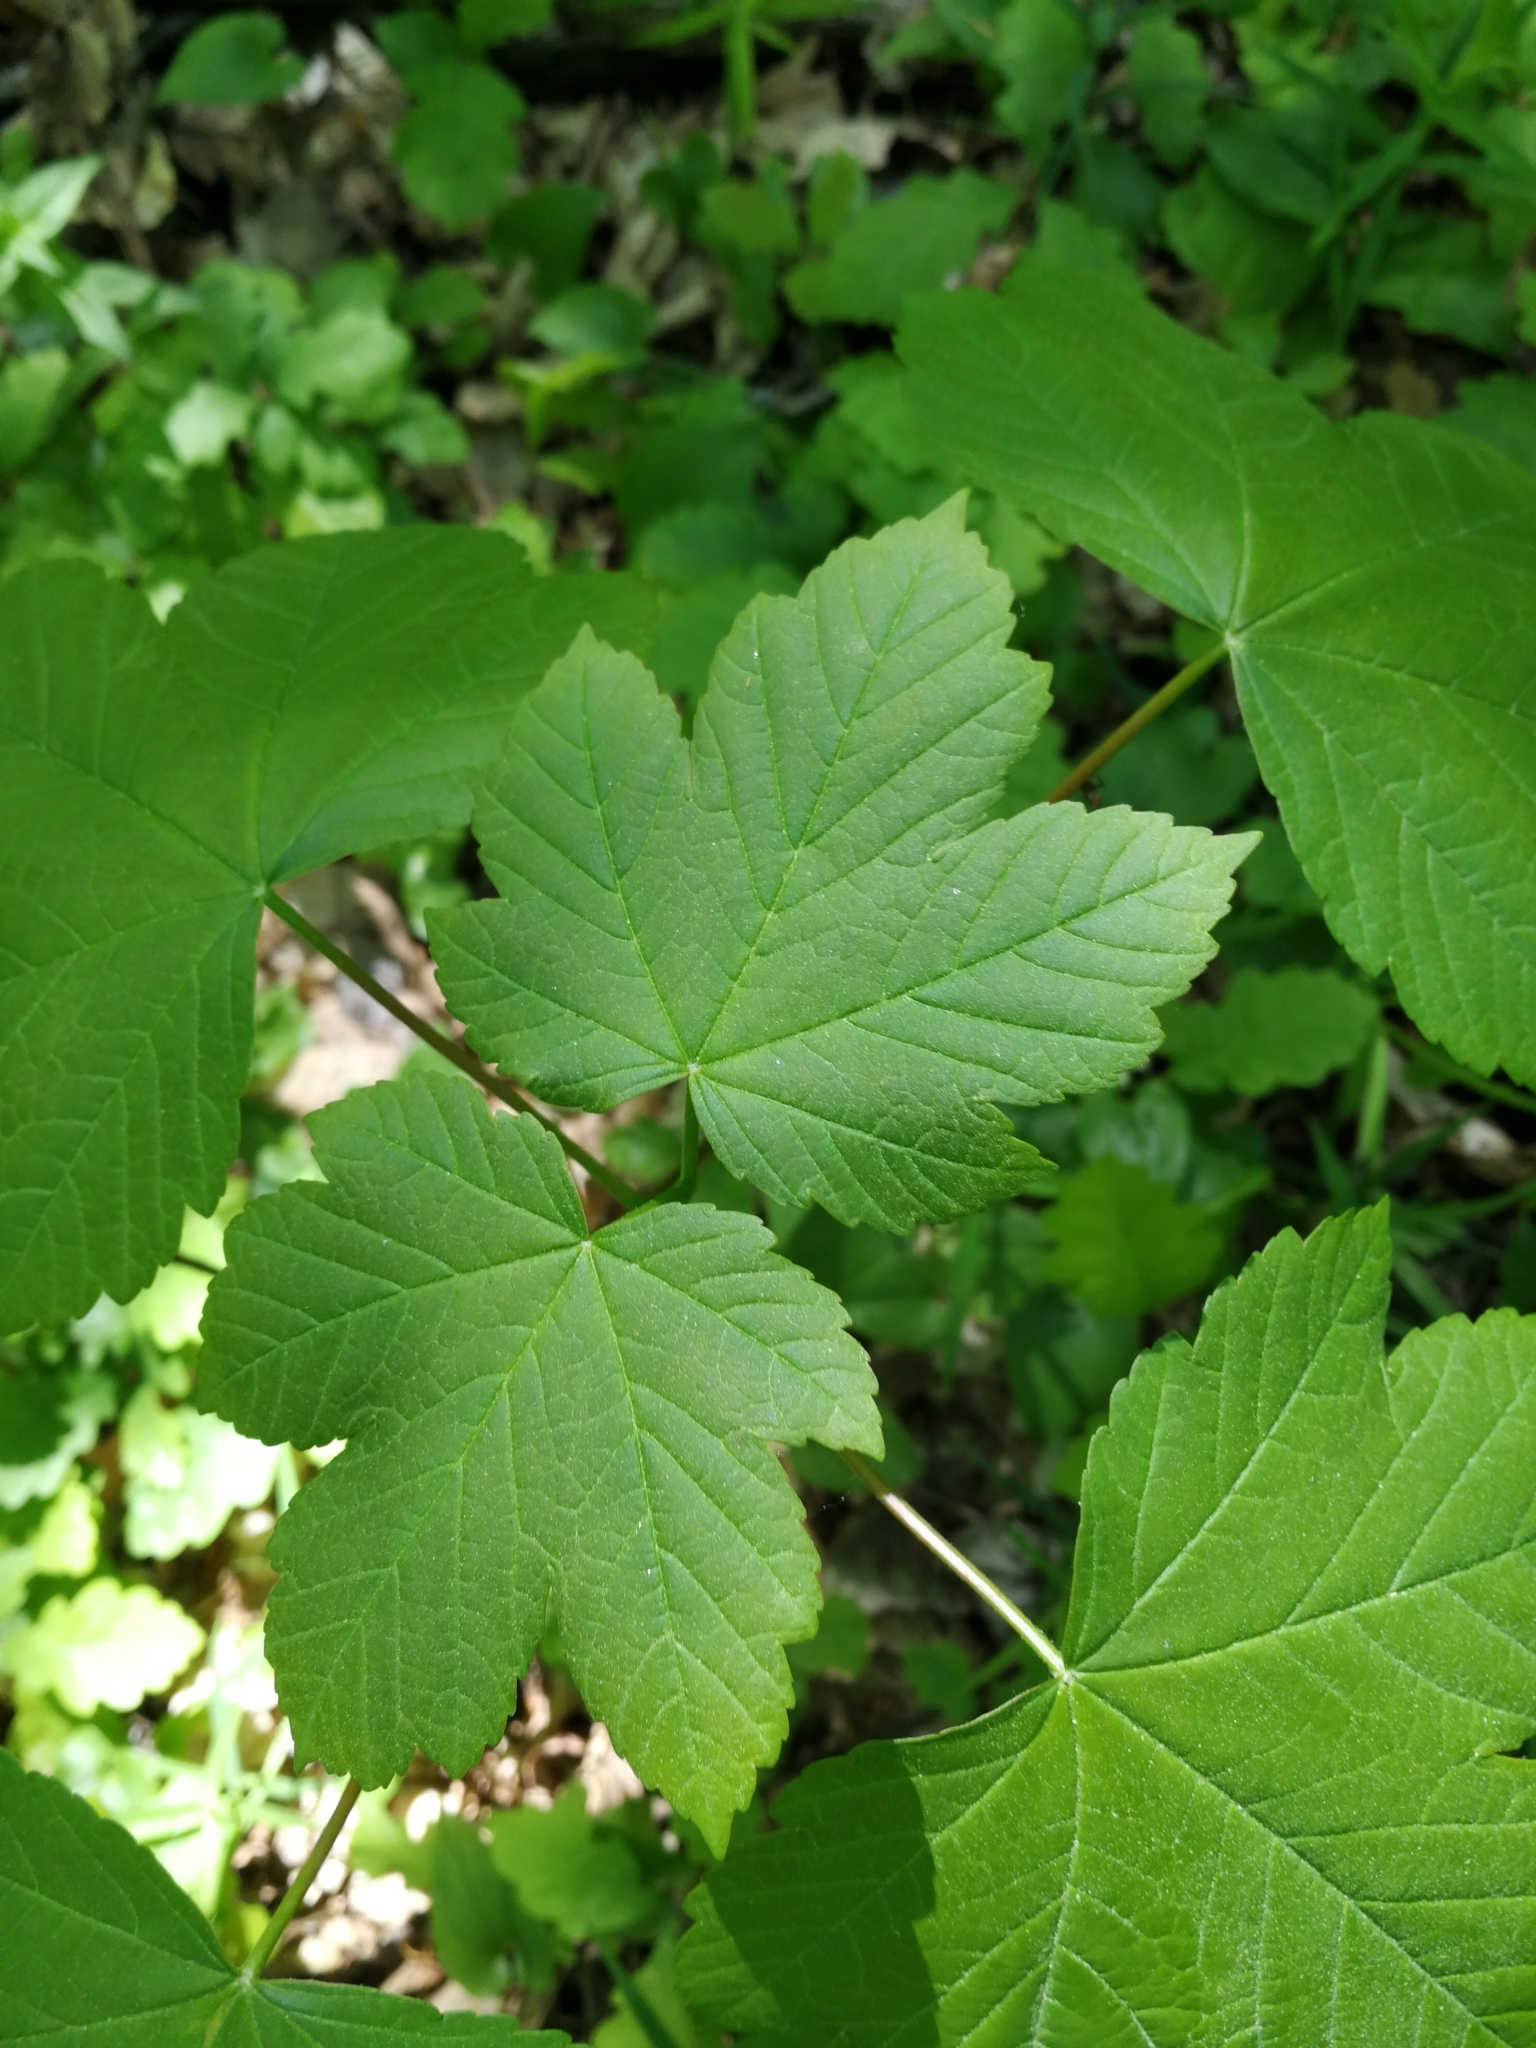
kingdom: Plantae
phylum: Tracheophyta
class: Magnoliopsida
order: Sapindales
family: Sapindaceae
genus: Acer
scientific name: Acer pseudoplatanus
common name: Sycamore
